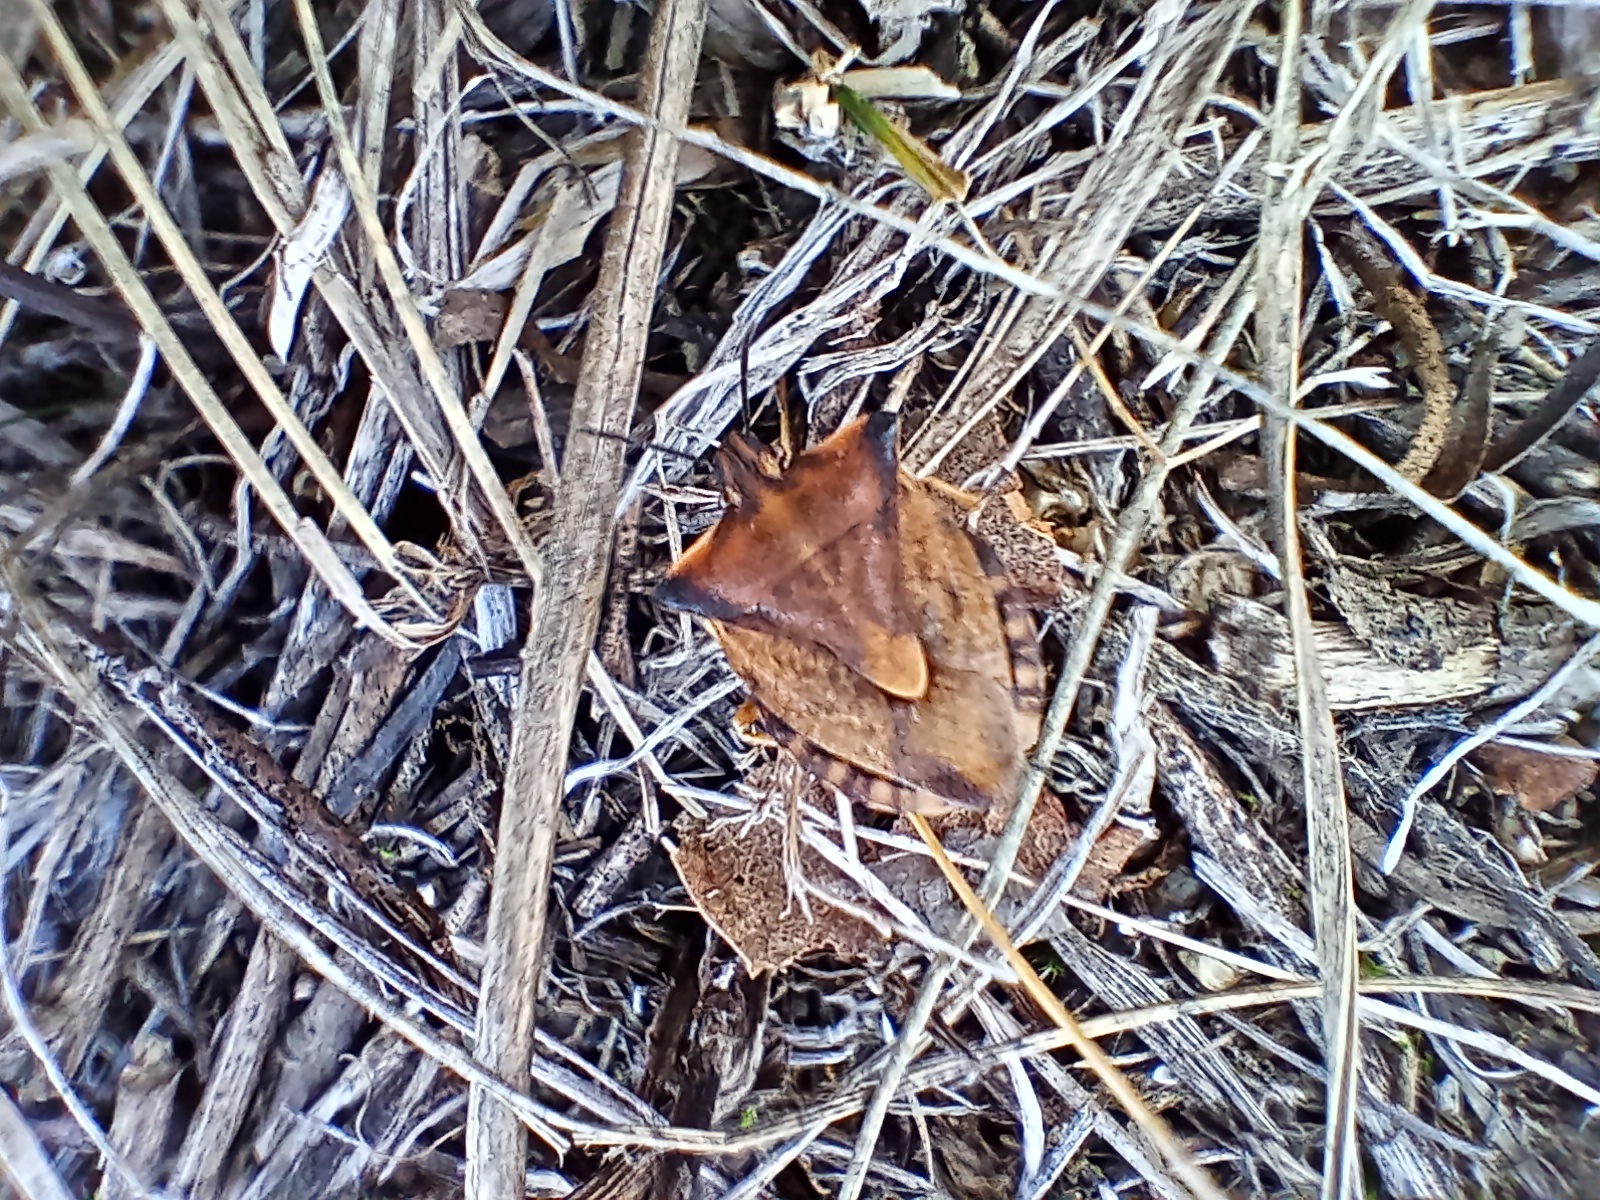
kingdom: Animalia
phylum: Arthropoda
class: Insecta
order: Hemiptera
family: Pentatomidae
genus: Carpocoris
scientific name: Carpocoris fuscispinus
